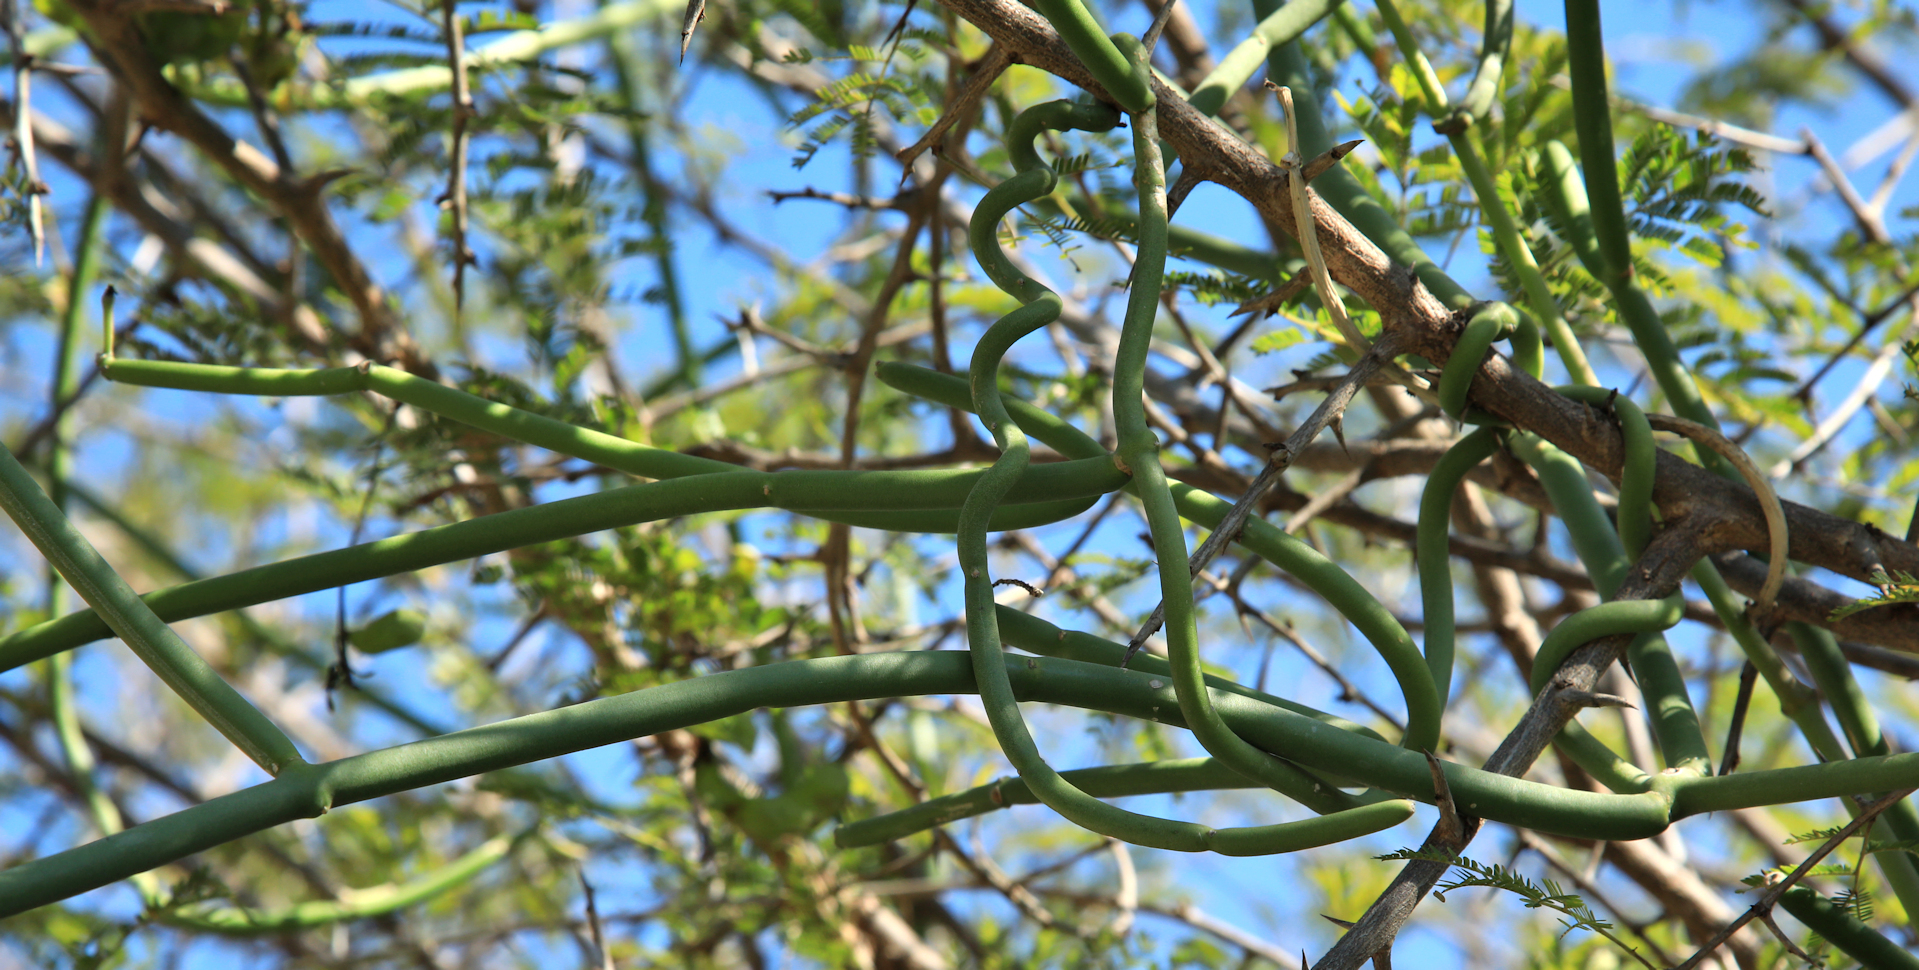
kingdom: Plantae
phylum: Tracheophyta
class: Magnoliopsida
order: Gentianales
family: Apocynaceae
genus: Cynanchum
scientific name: Cynanchum viminale
